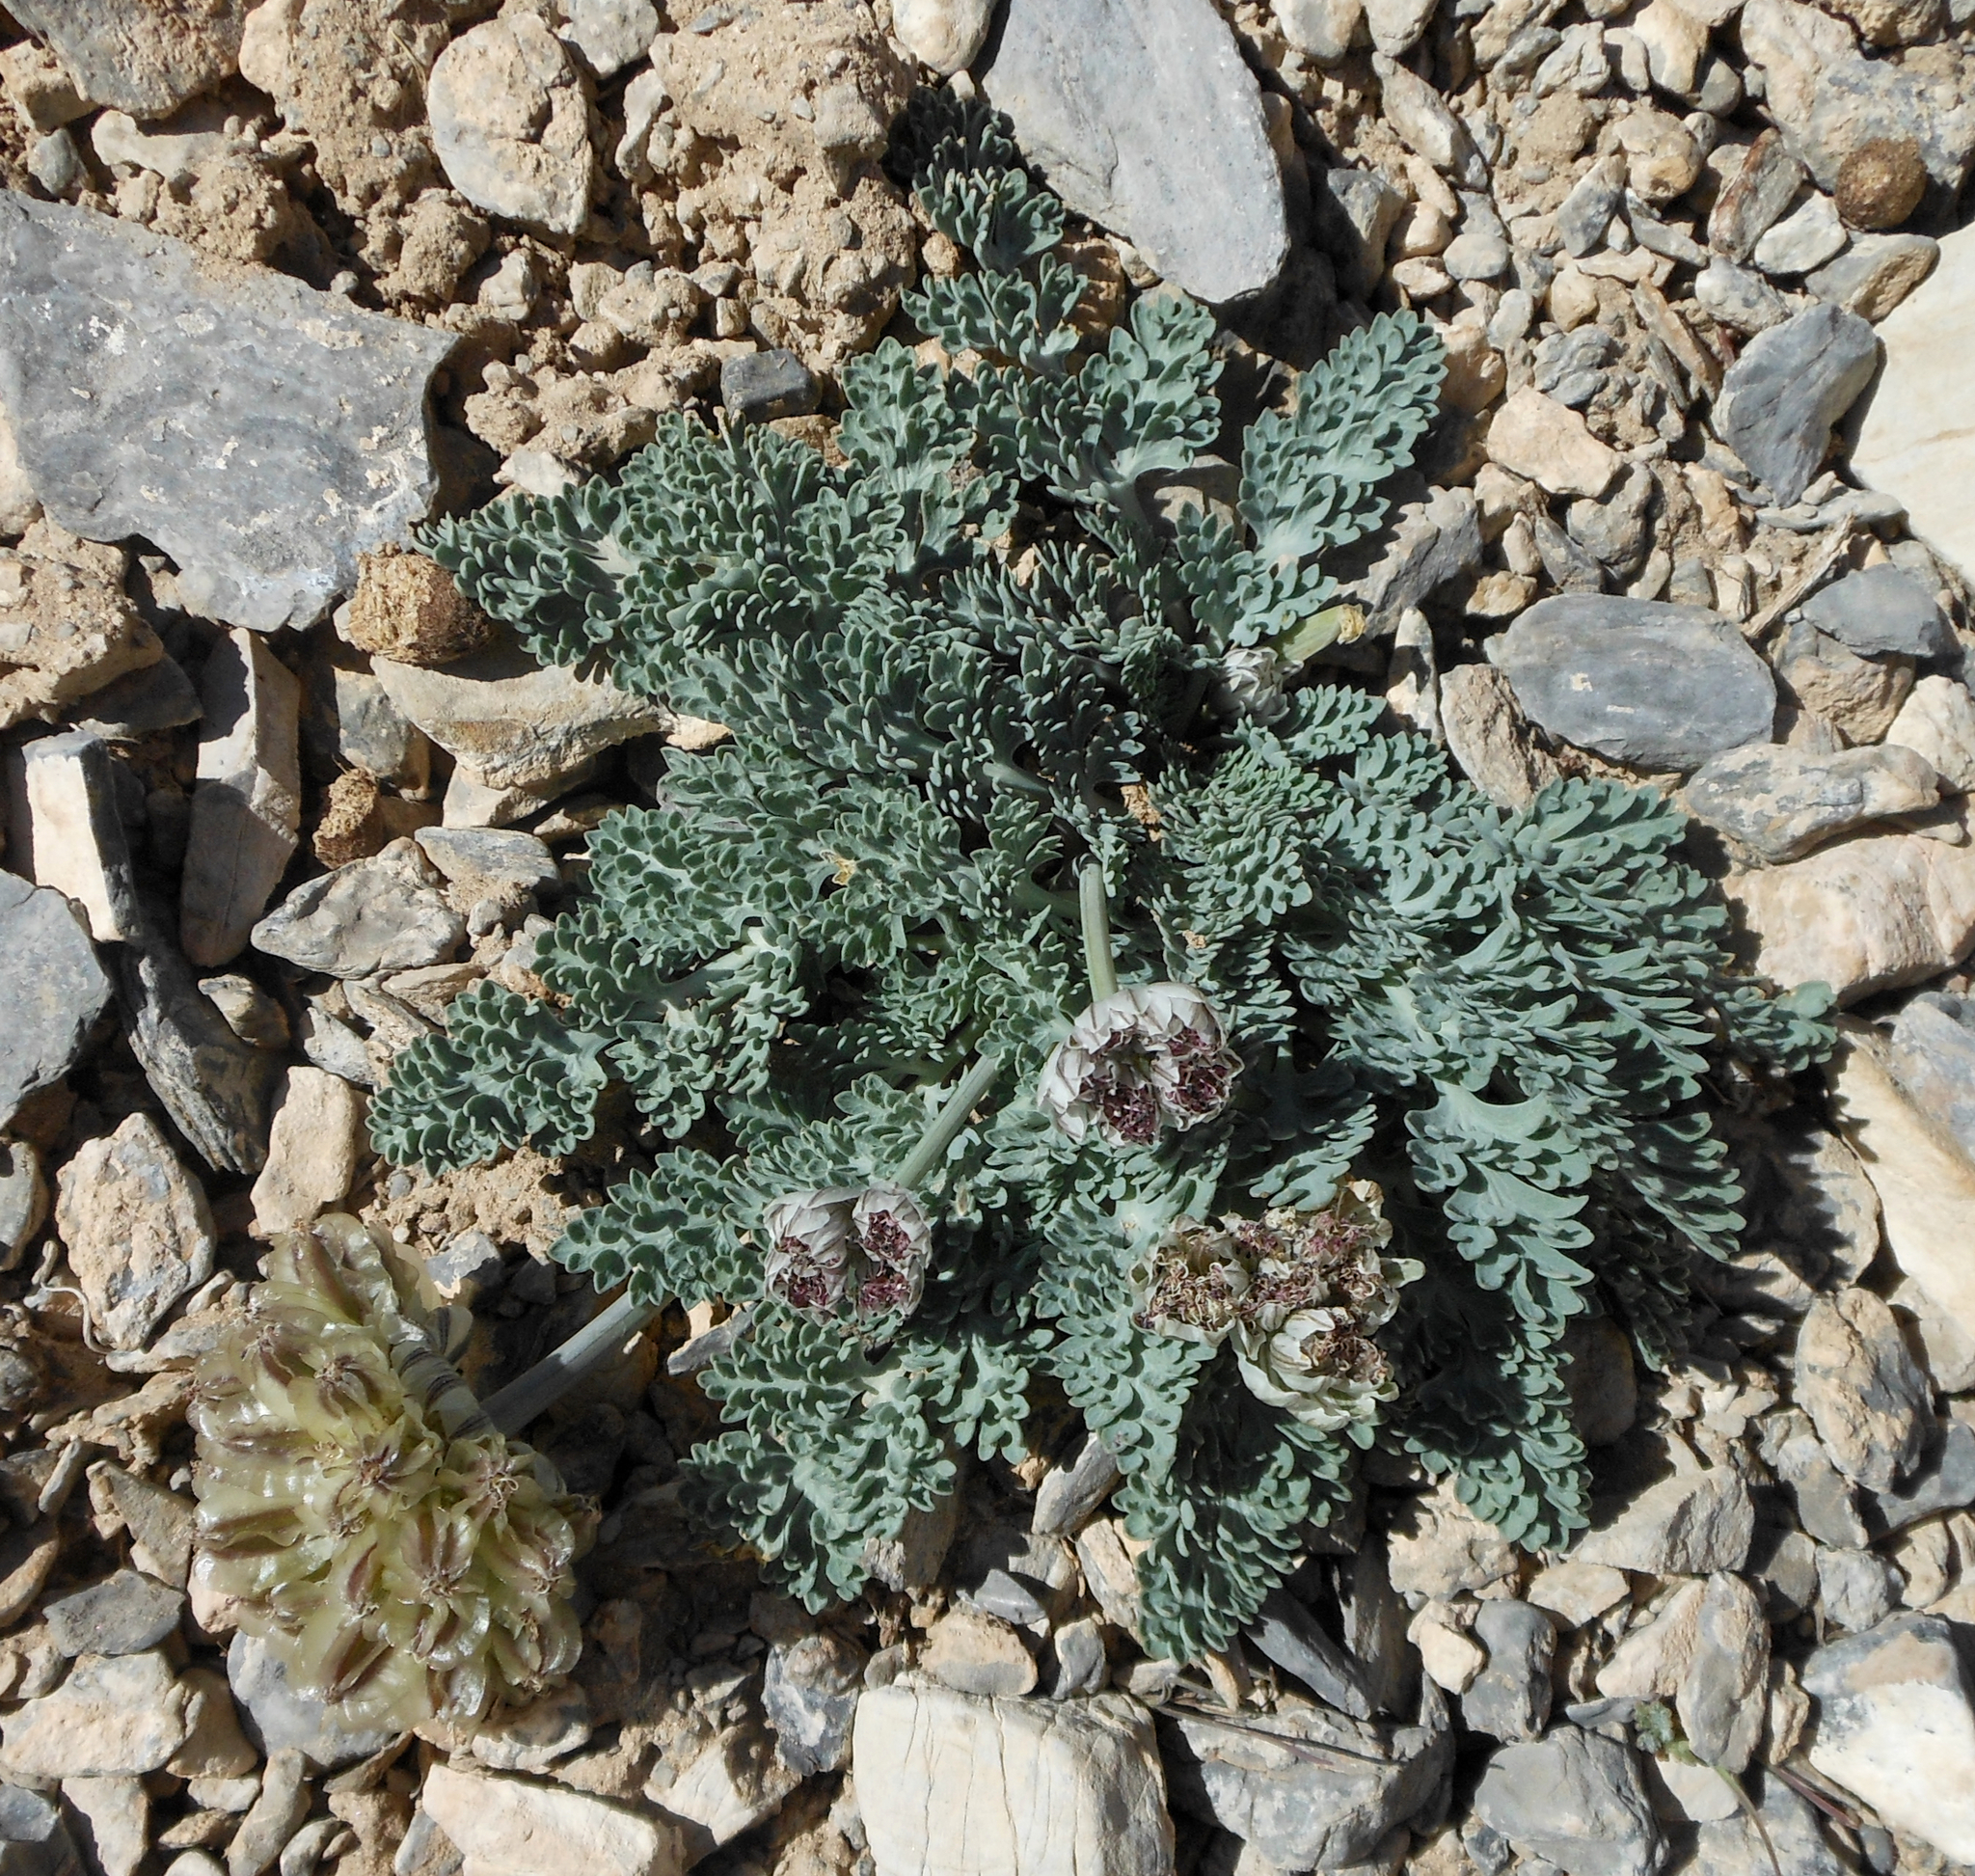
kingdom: Plantae
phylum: Tracheophyta
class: Magnoliopsida
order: Apiales
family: Apiaceae
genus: Vesper
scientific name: Vesper purpurascens
